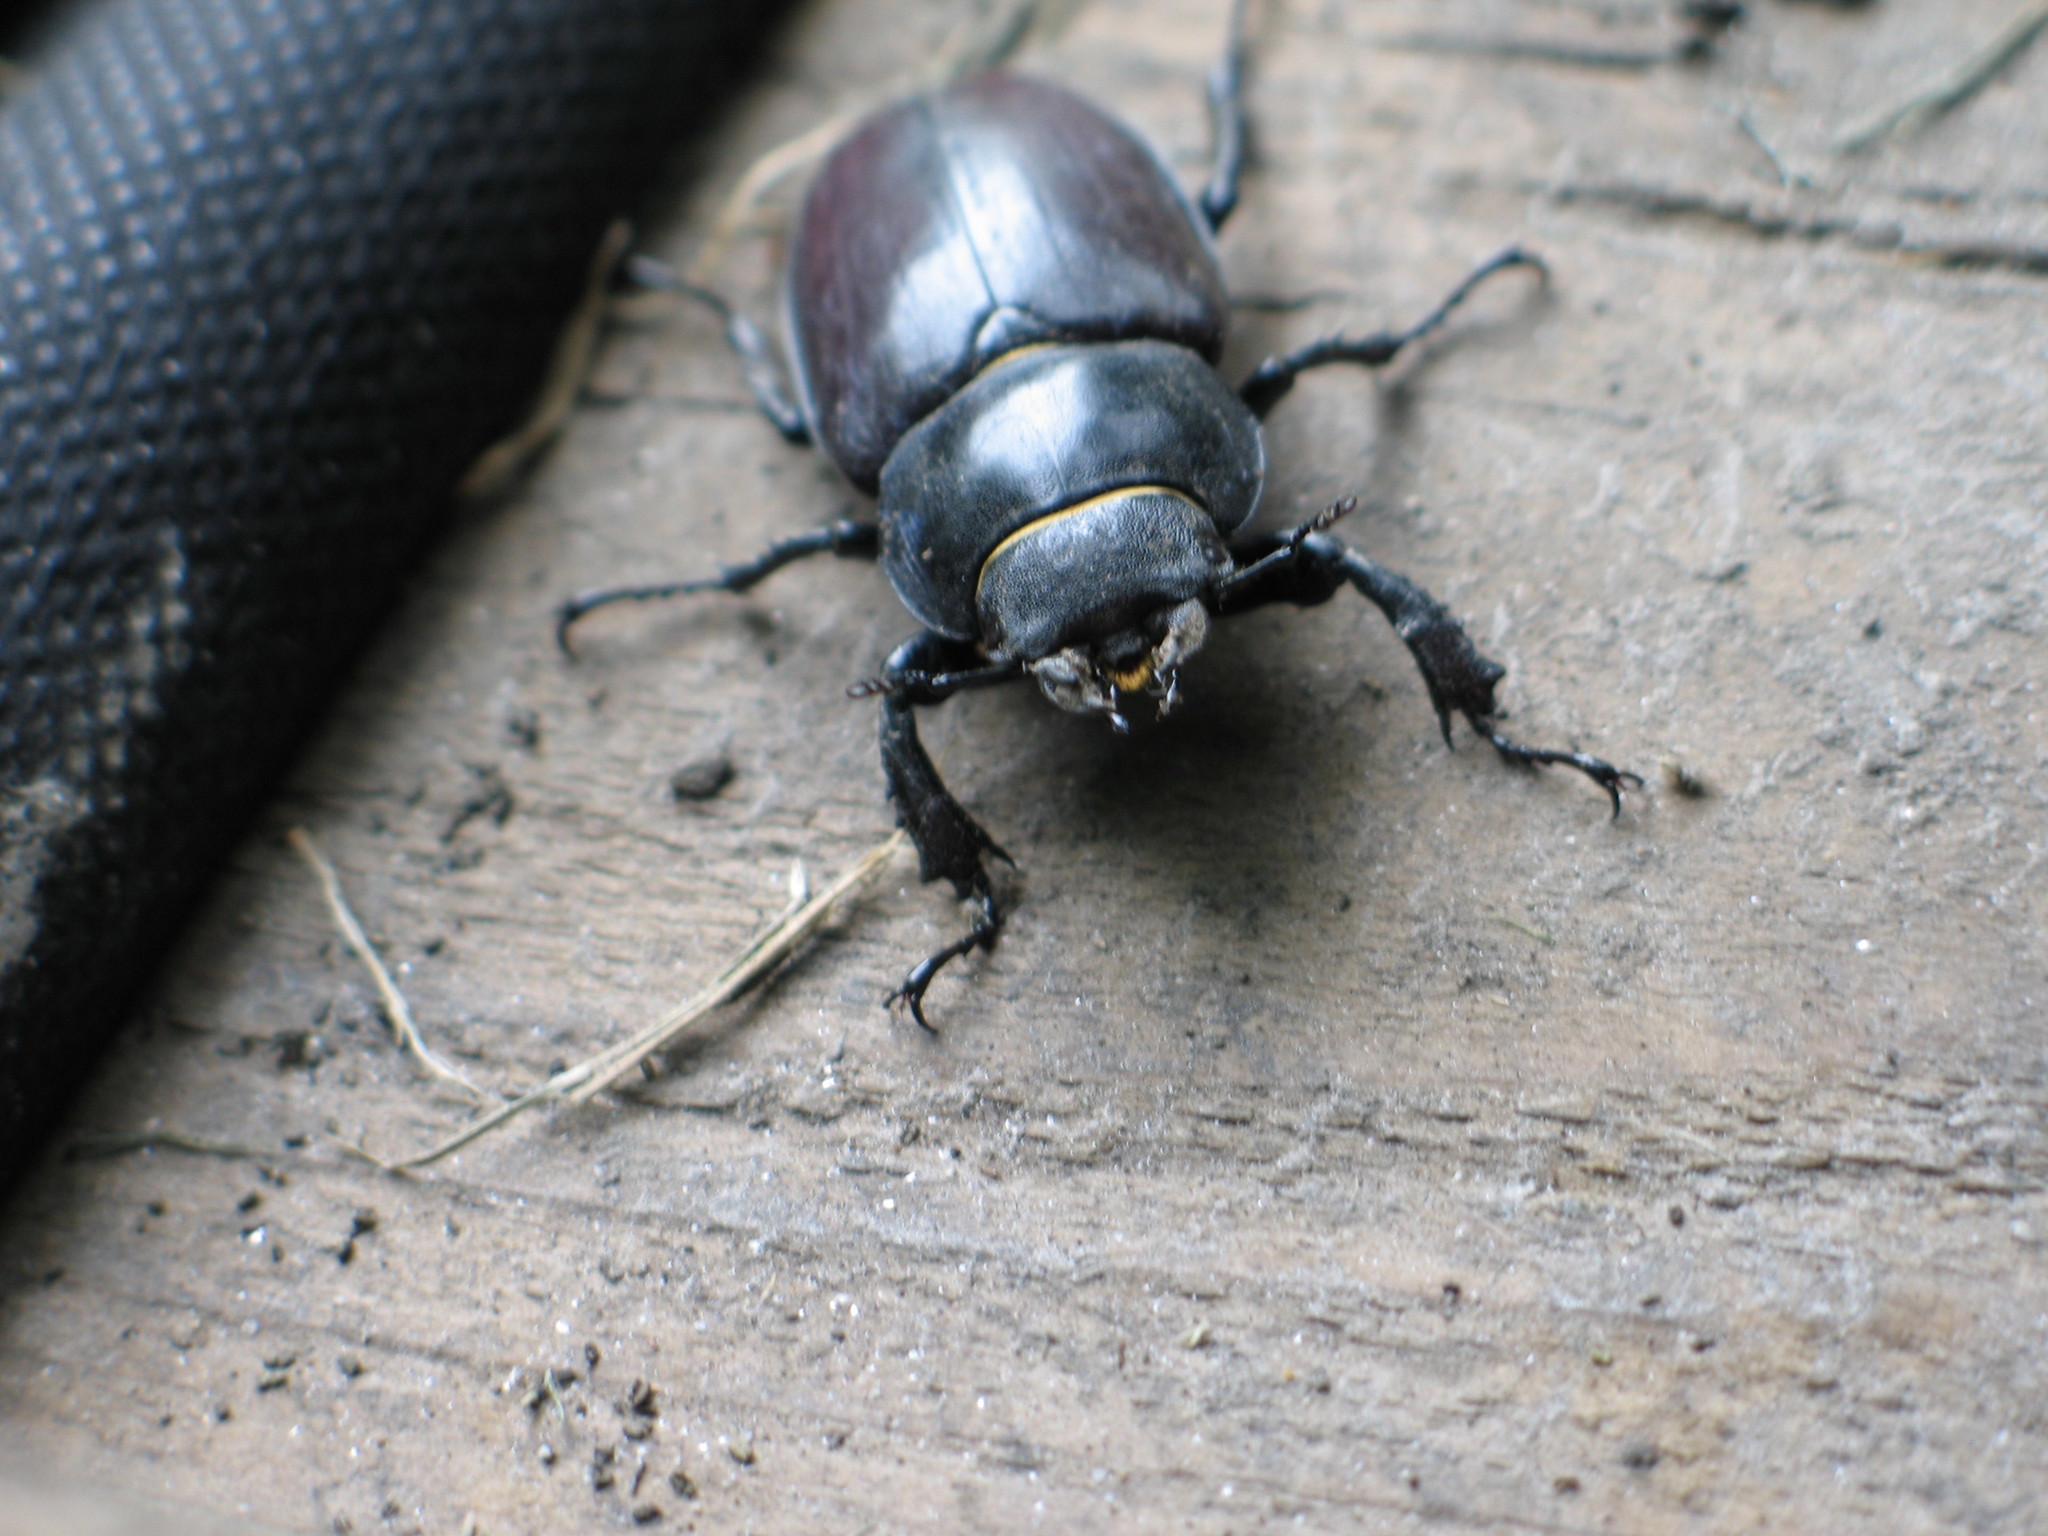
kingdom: Animalia
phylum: Arthropoda
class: Insecta
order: Coleoptera
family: Lucanidae
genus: Lucanus
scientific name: Lucanus cervus
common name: Stag beetle
